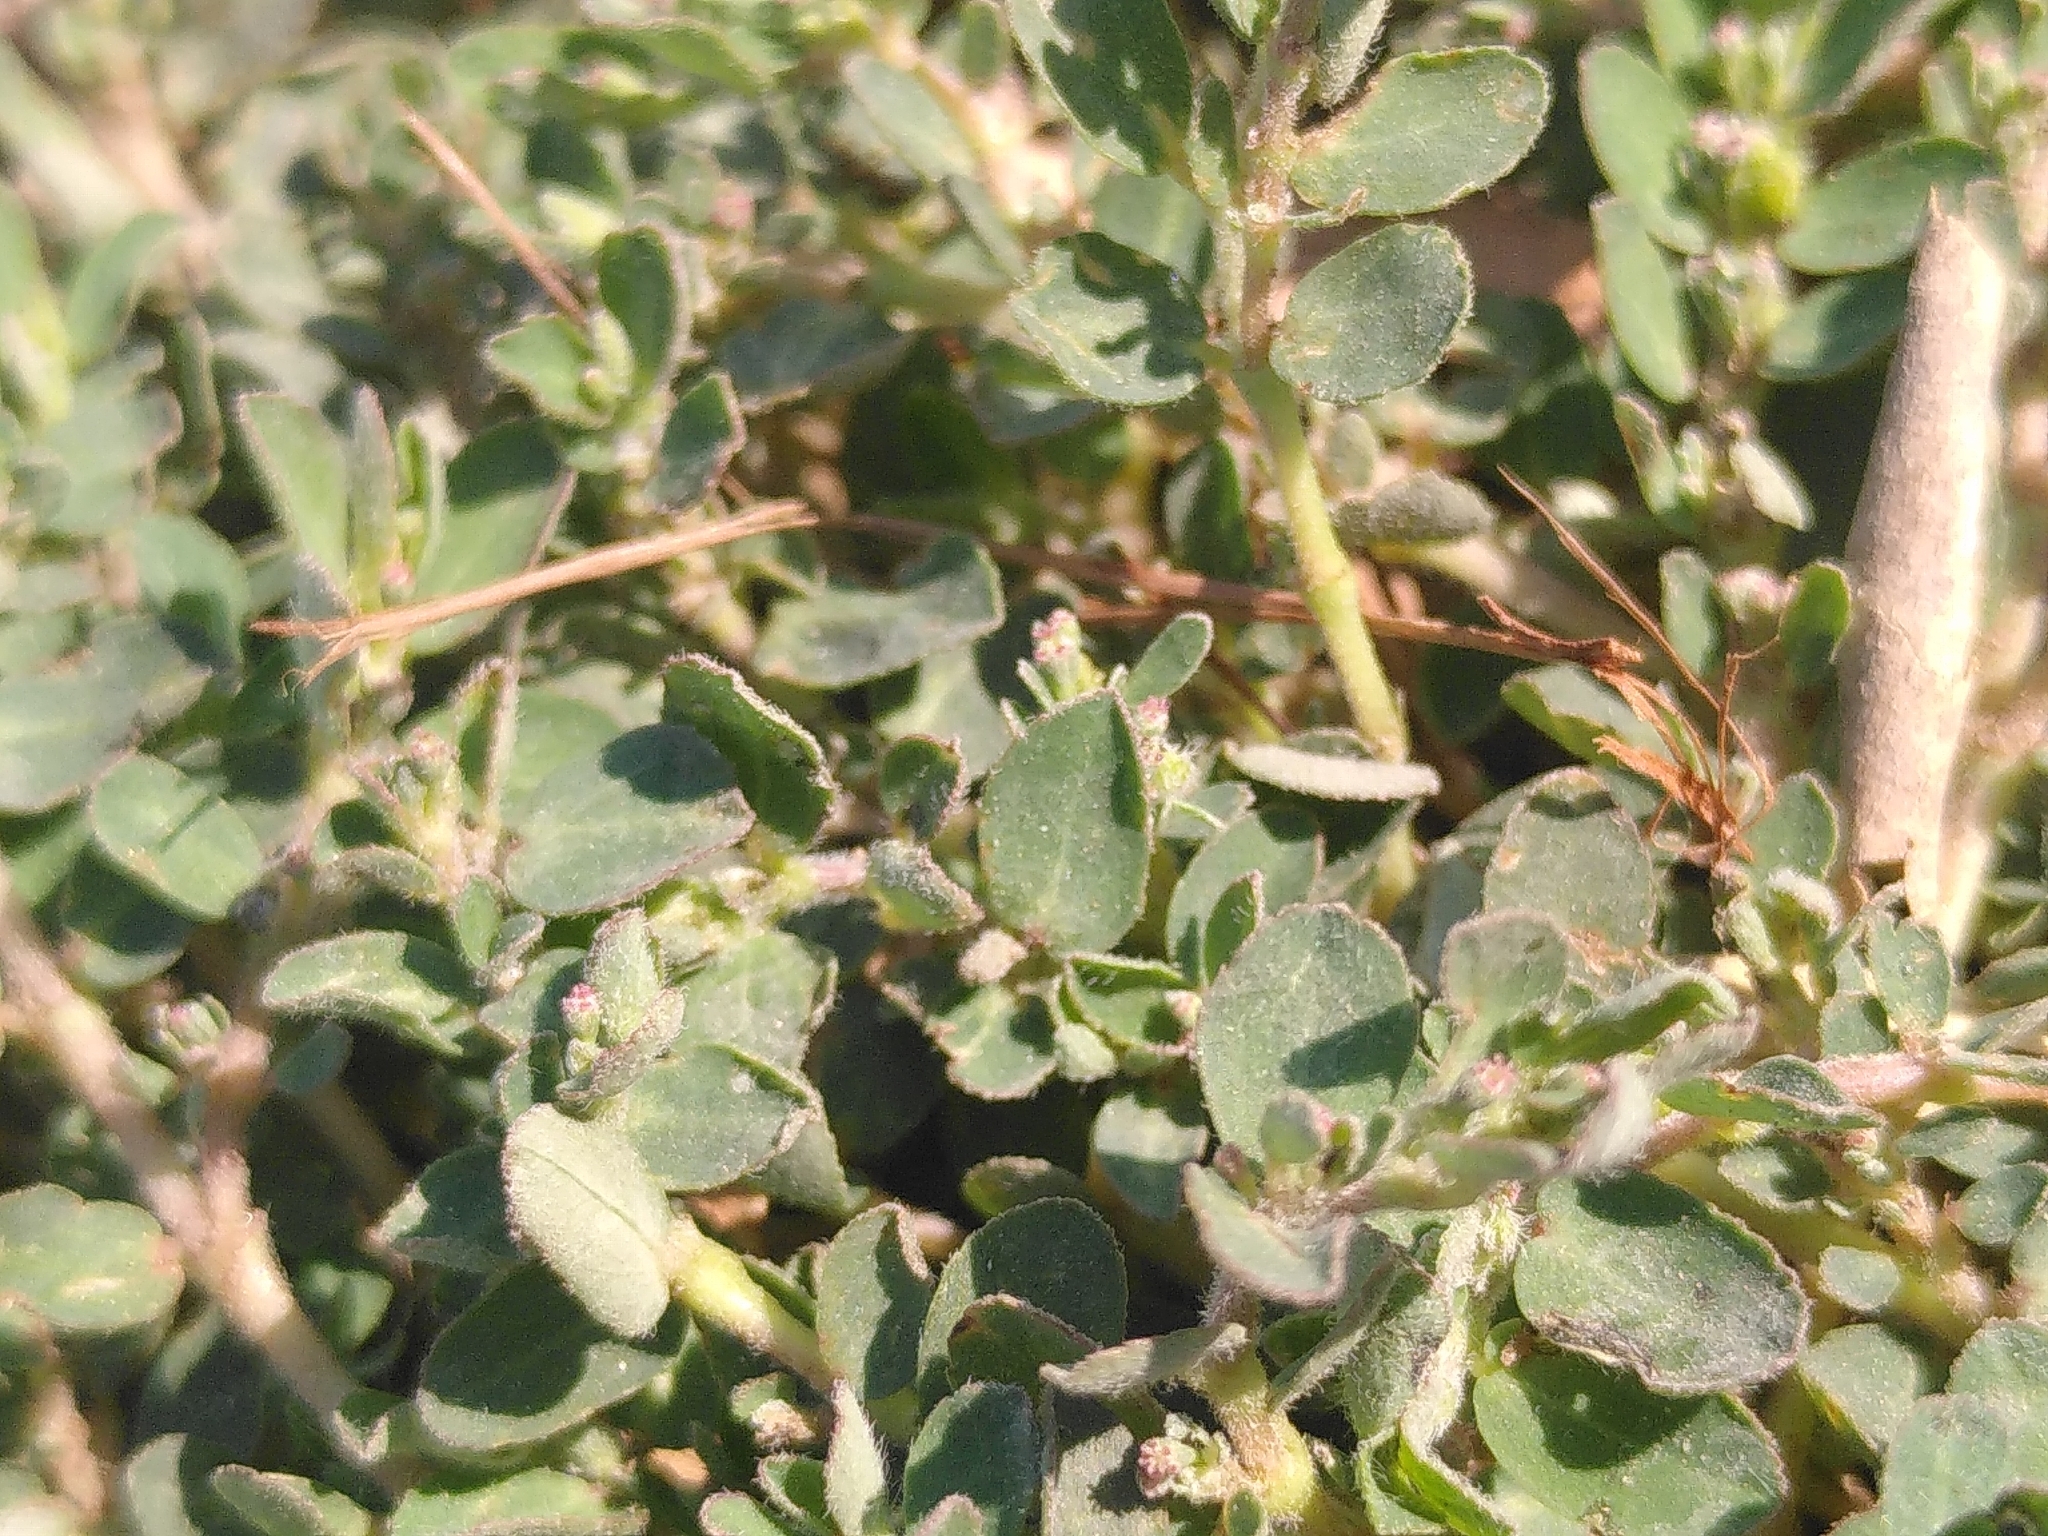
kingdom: Plantae
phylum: Tracheophyta
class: Magnoliopsida
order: Malpighiales
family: Euphorbiaceae
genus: Euphorbia
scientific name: Euphorbia prostrata
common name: Prostrate sandmat
